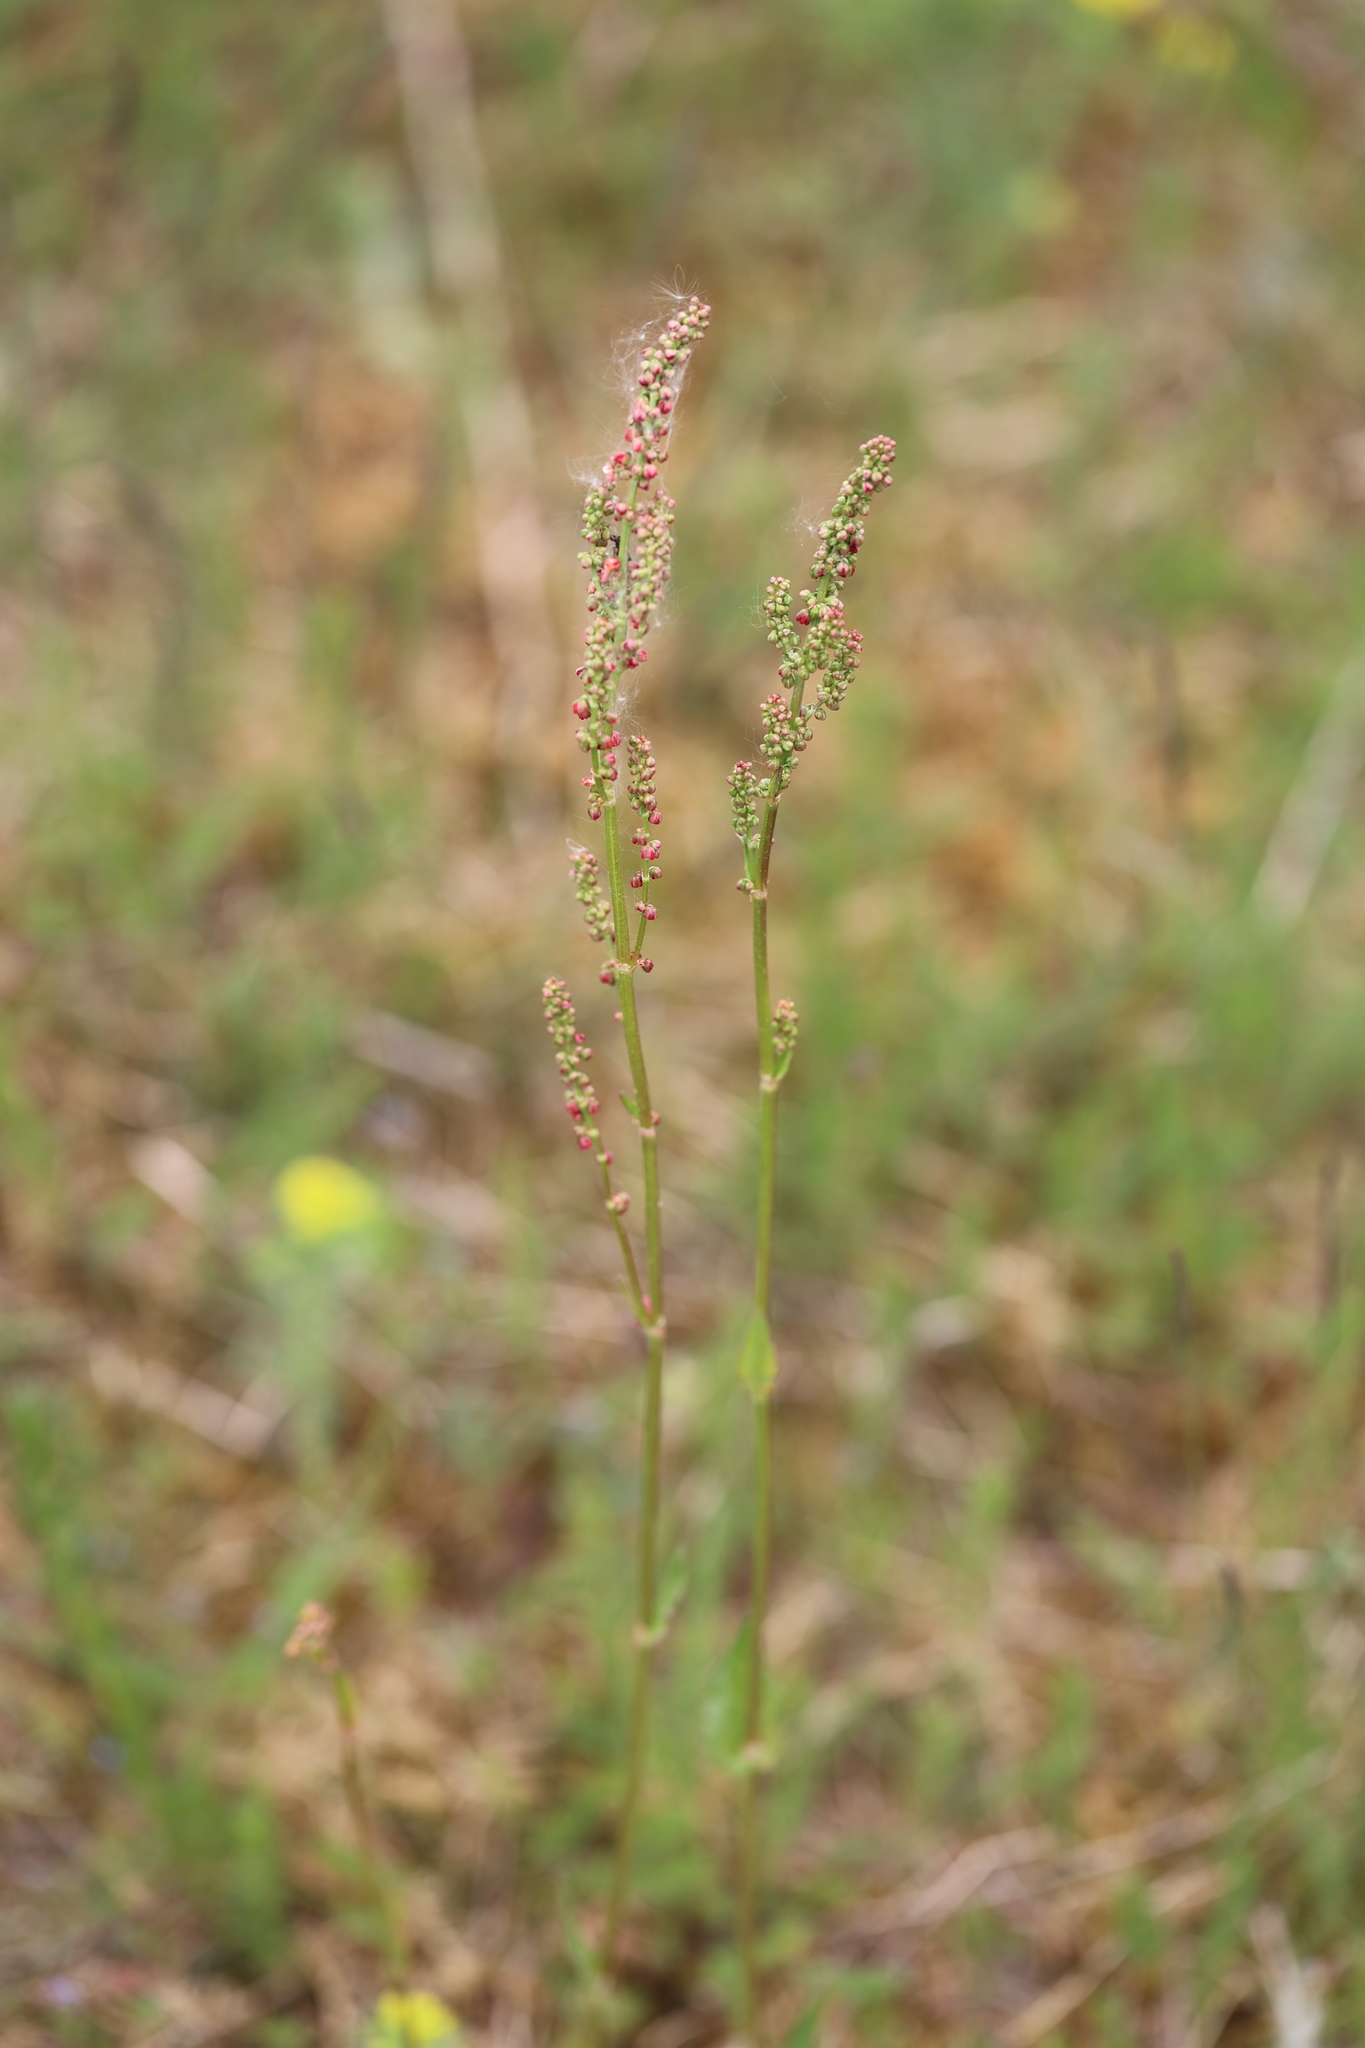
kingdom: Plantae
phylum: Tracheophyta
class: Magnoliopsida
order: Caryophyllales
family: Polygonaceae
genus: Rumex
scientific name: Rumex acetosa
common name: Garden sorrel
